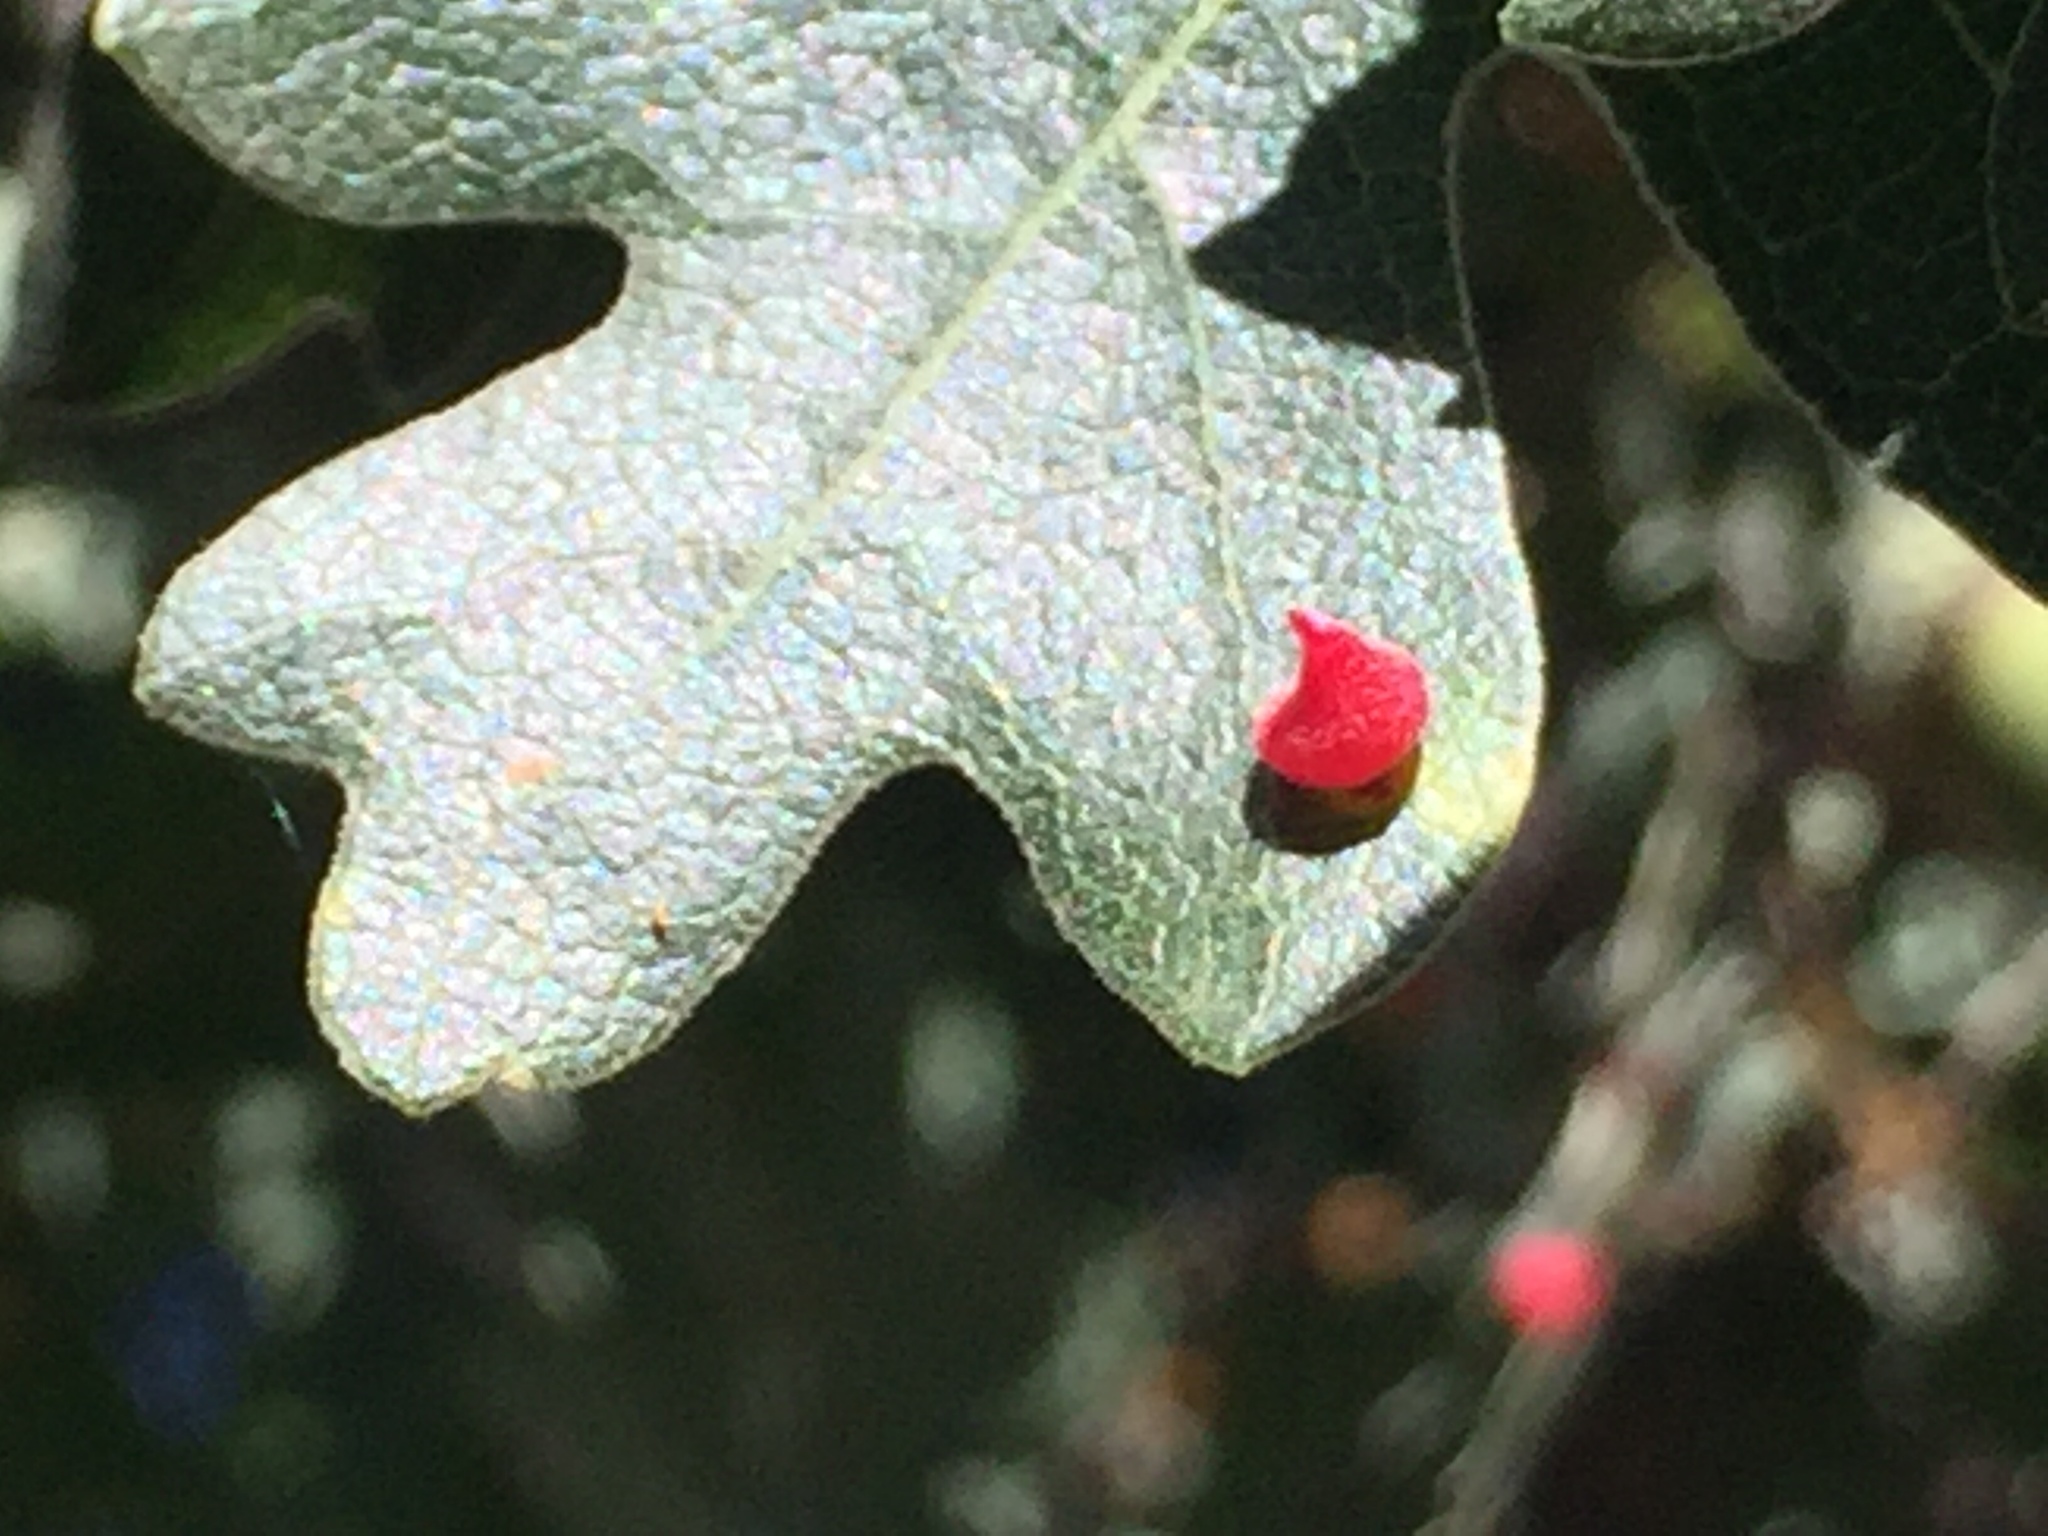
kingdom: Animalia
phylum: Arthropoda
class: Insecta
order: Hymenoptera
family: Cynipidae
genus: Andricus
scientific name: Andricus
